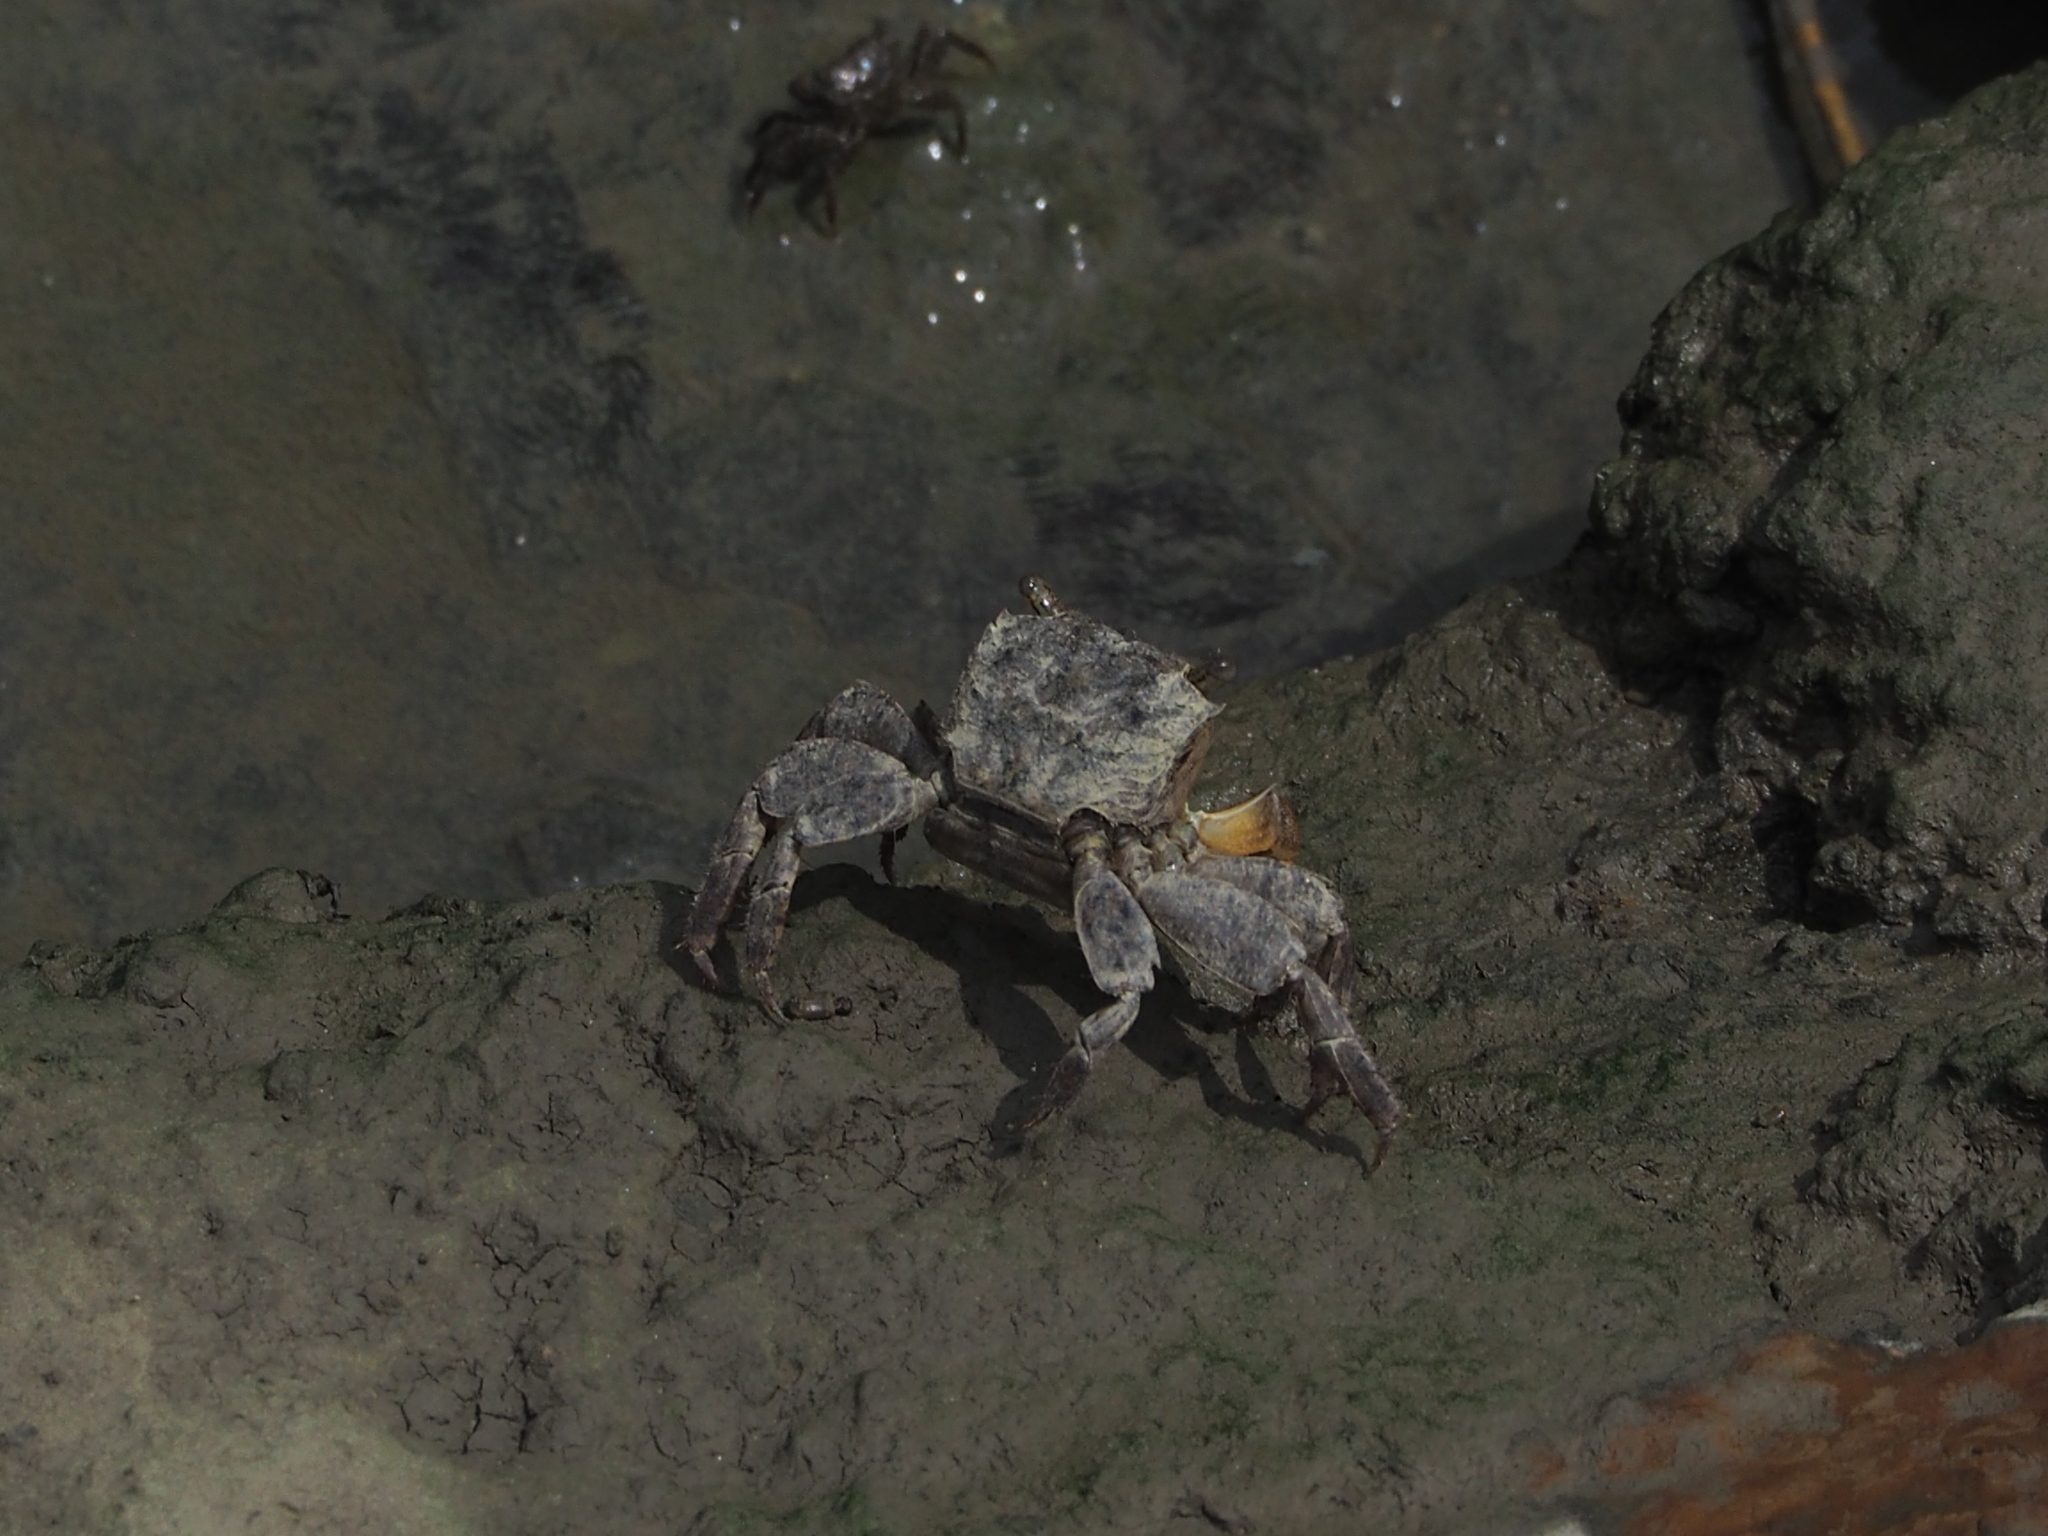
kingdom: Animalia
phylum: Arthropoda
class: Malacostraca
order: Decapoda
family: Sesarmidae
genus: Parasesarma
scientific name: Parasesarma bidens
